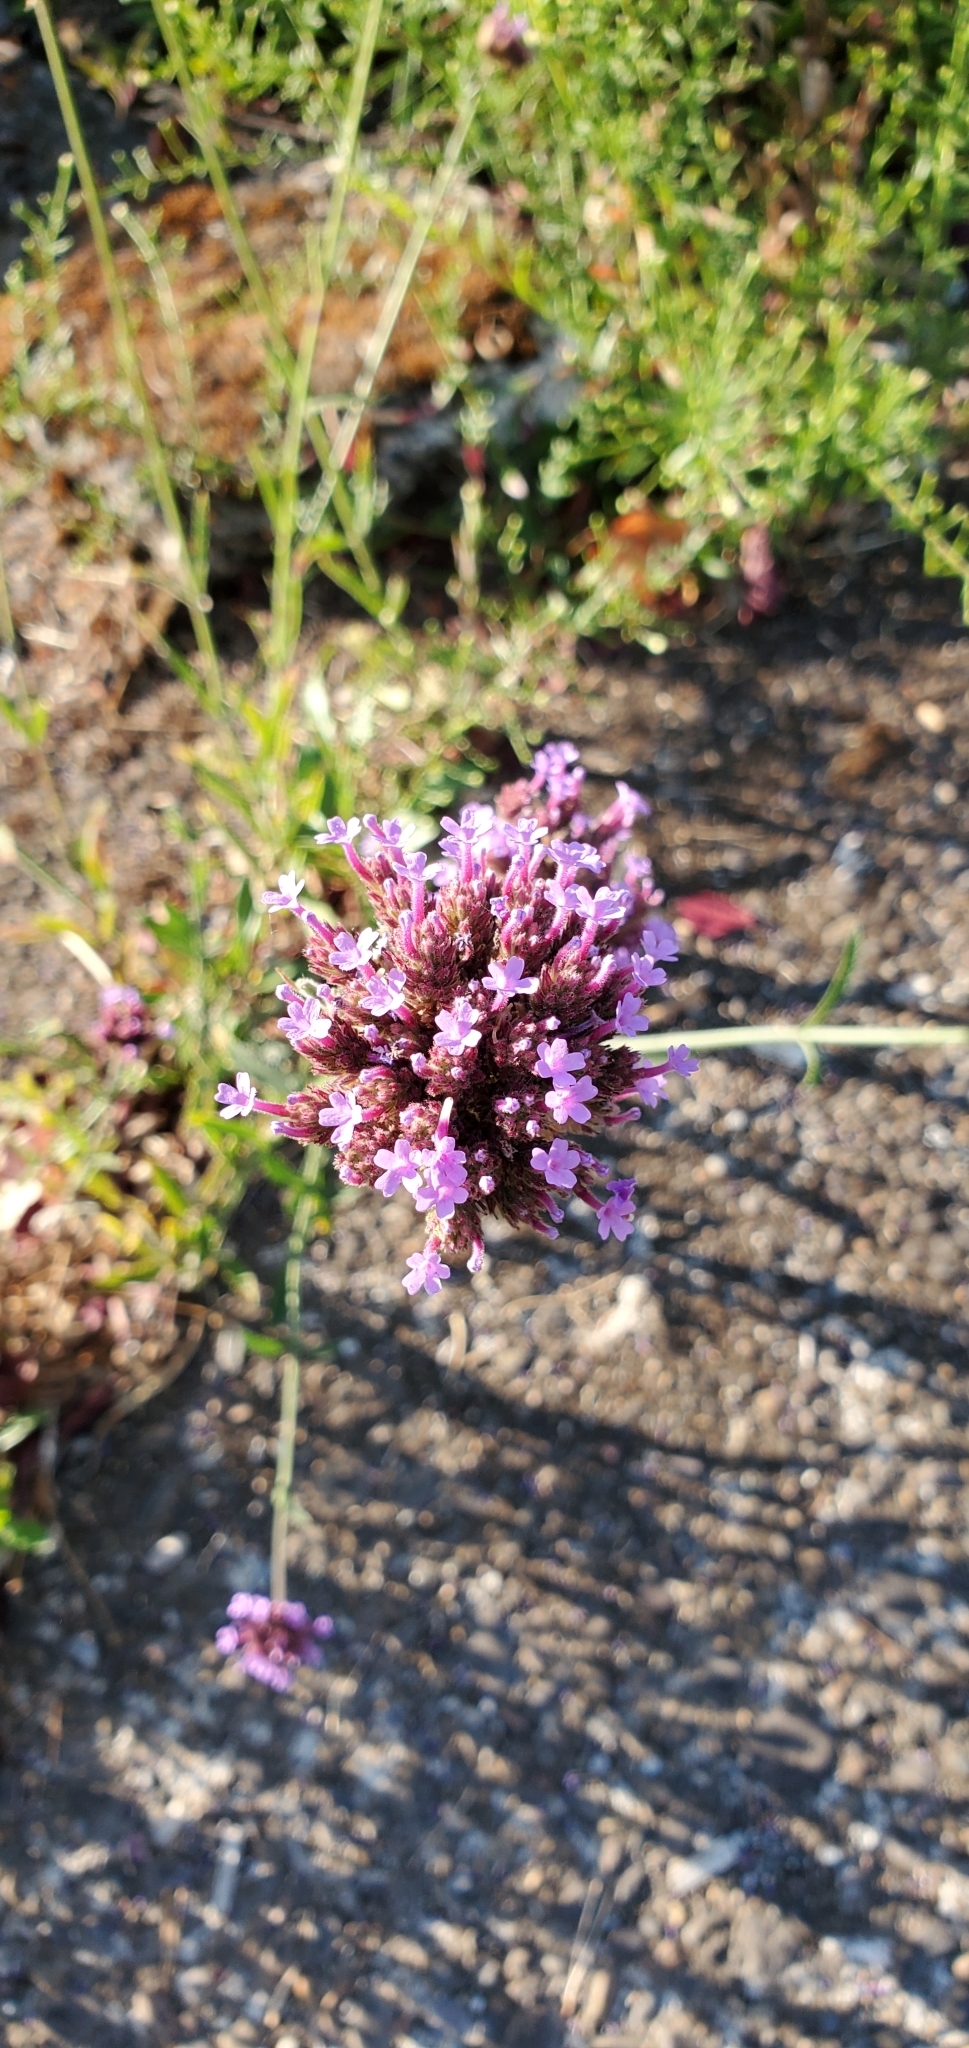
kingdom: Plantae
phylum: Tracheophyta
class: Magnoliopsida
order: Lamiales
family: Verbenaceae
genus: Verbena
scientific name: Verbena bonariensis
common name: Purpletop vervain
